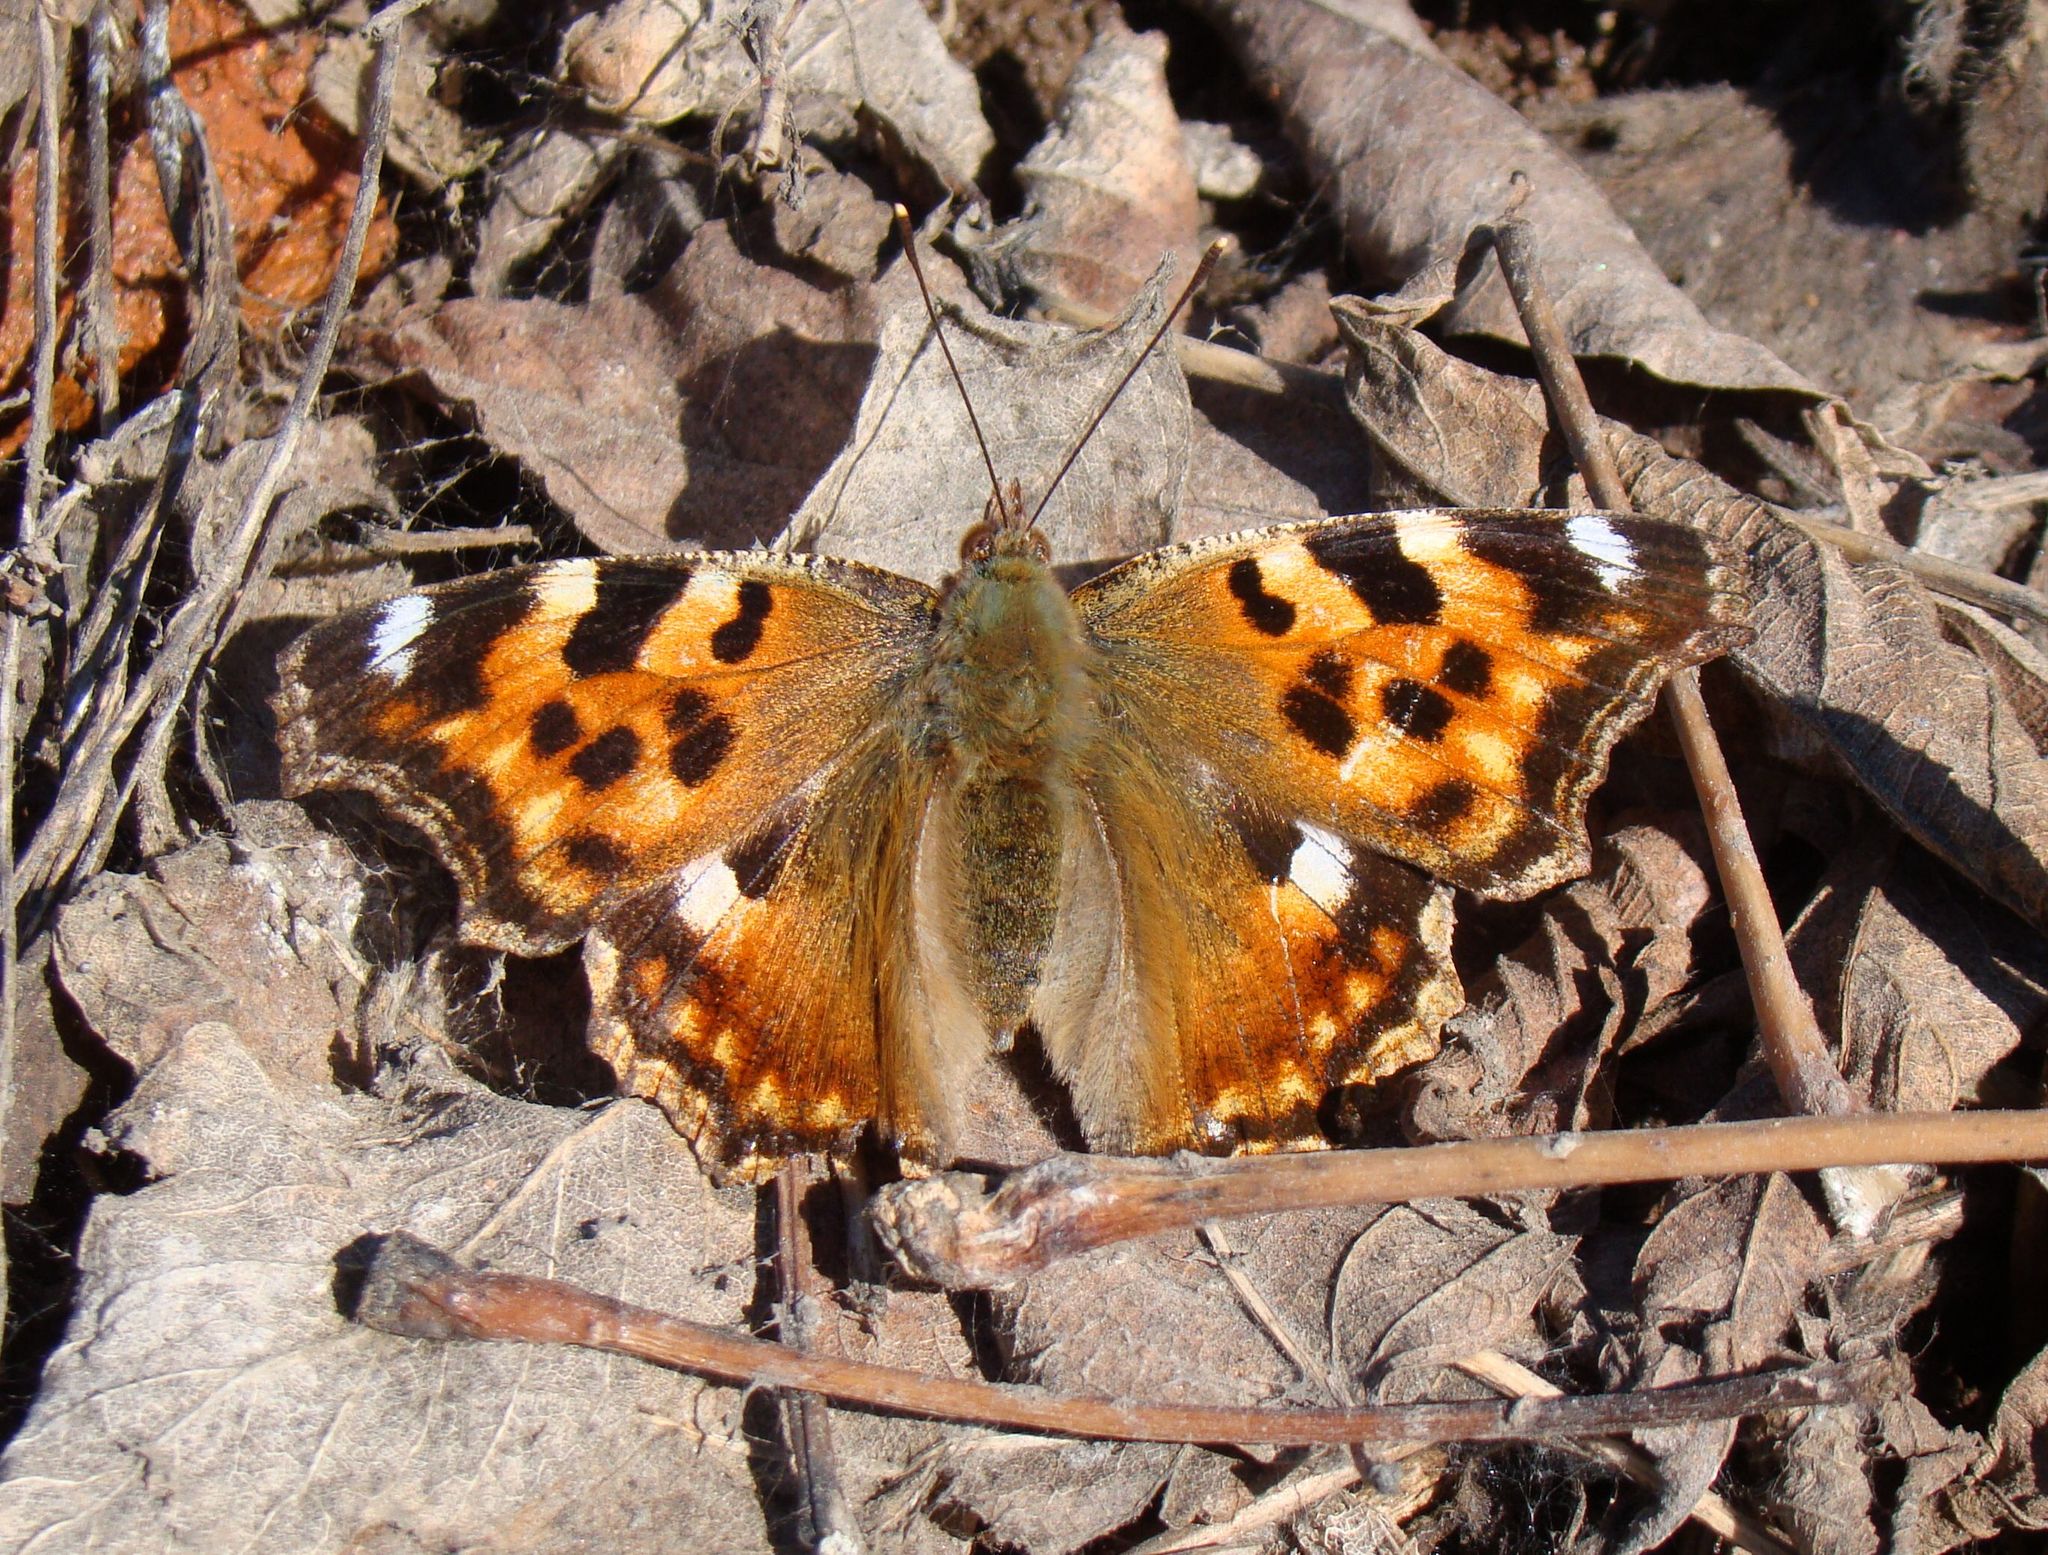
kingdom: Animalia
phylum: Arthropoda
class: Insecta
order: Lepidoptera
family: Nymphalidae
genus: Polygonia
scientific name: Polygonia vaualbum
